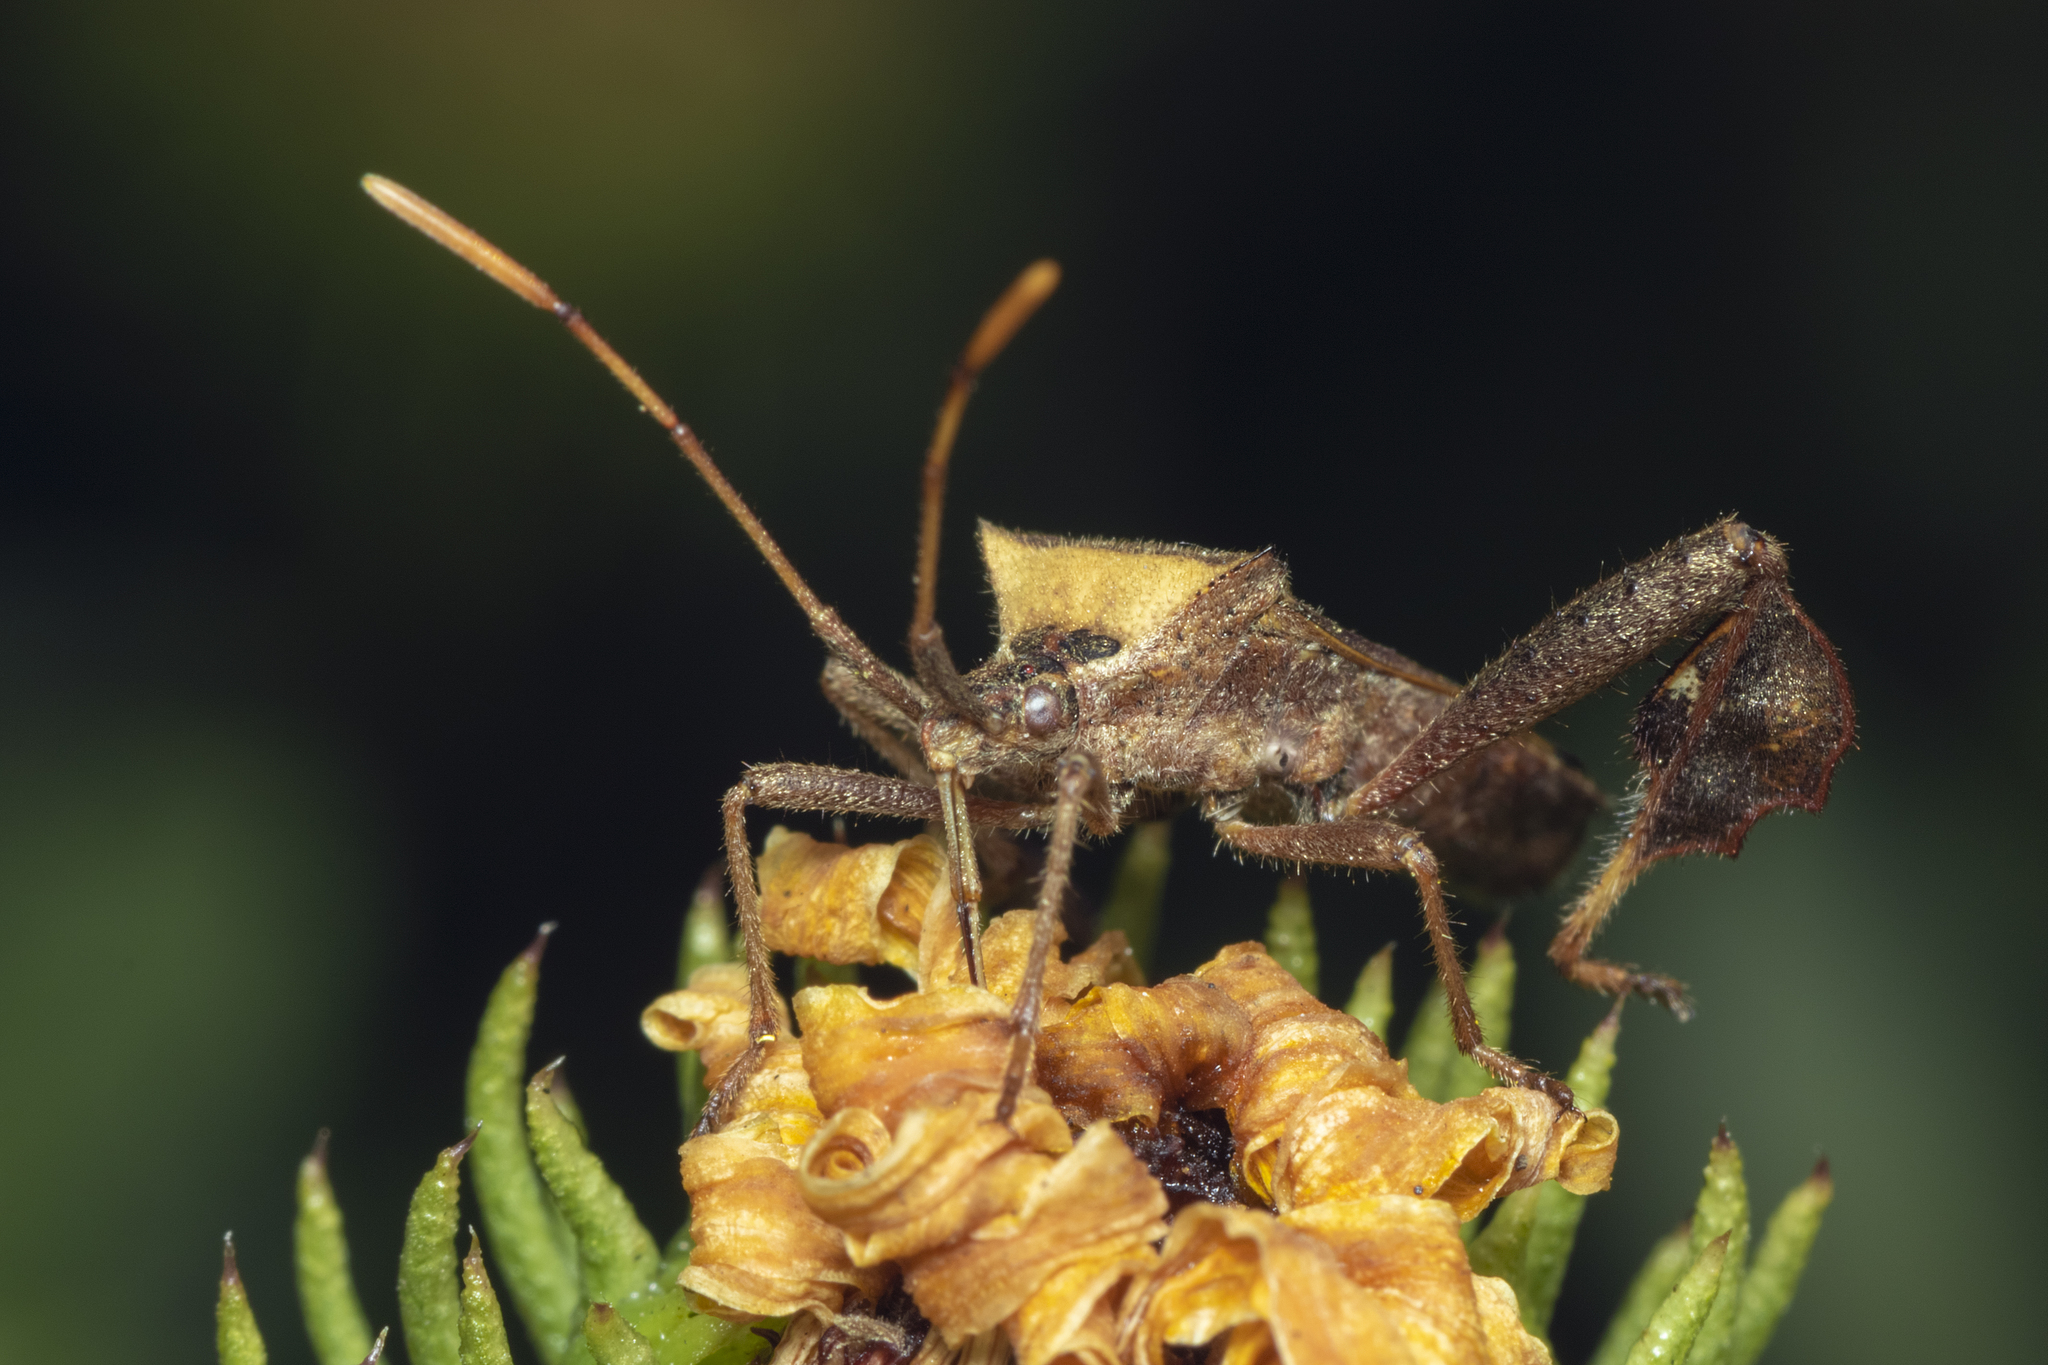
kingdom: Animalia
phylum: Arthropoda
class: Insecta
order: Hemiptera
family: Coreidae
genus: Leptoglossus
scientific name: Leptoglossus concaviusculus
